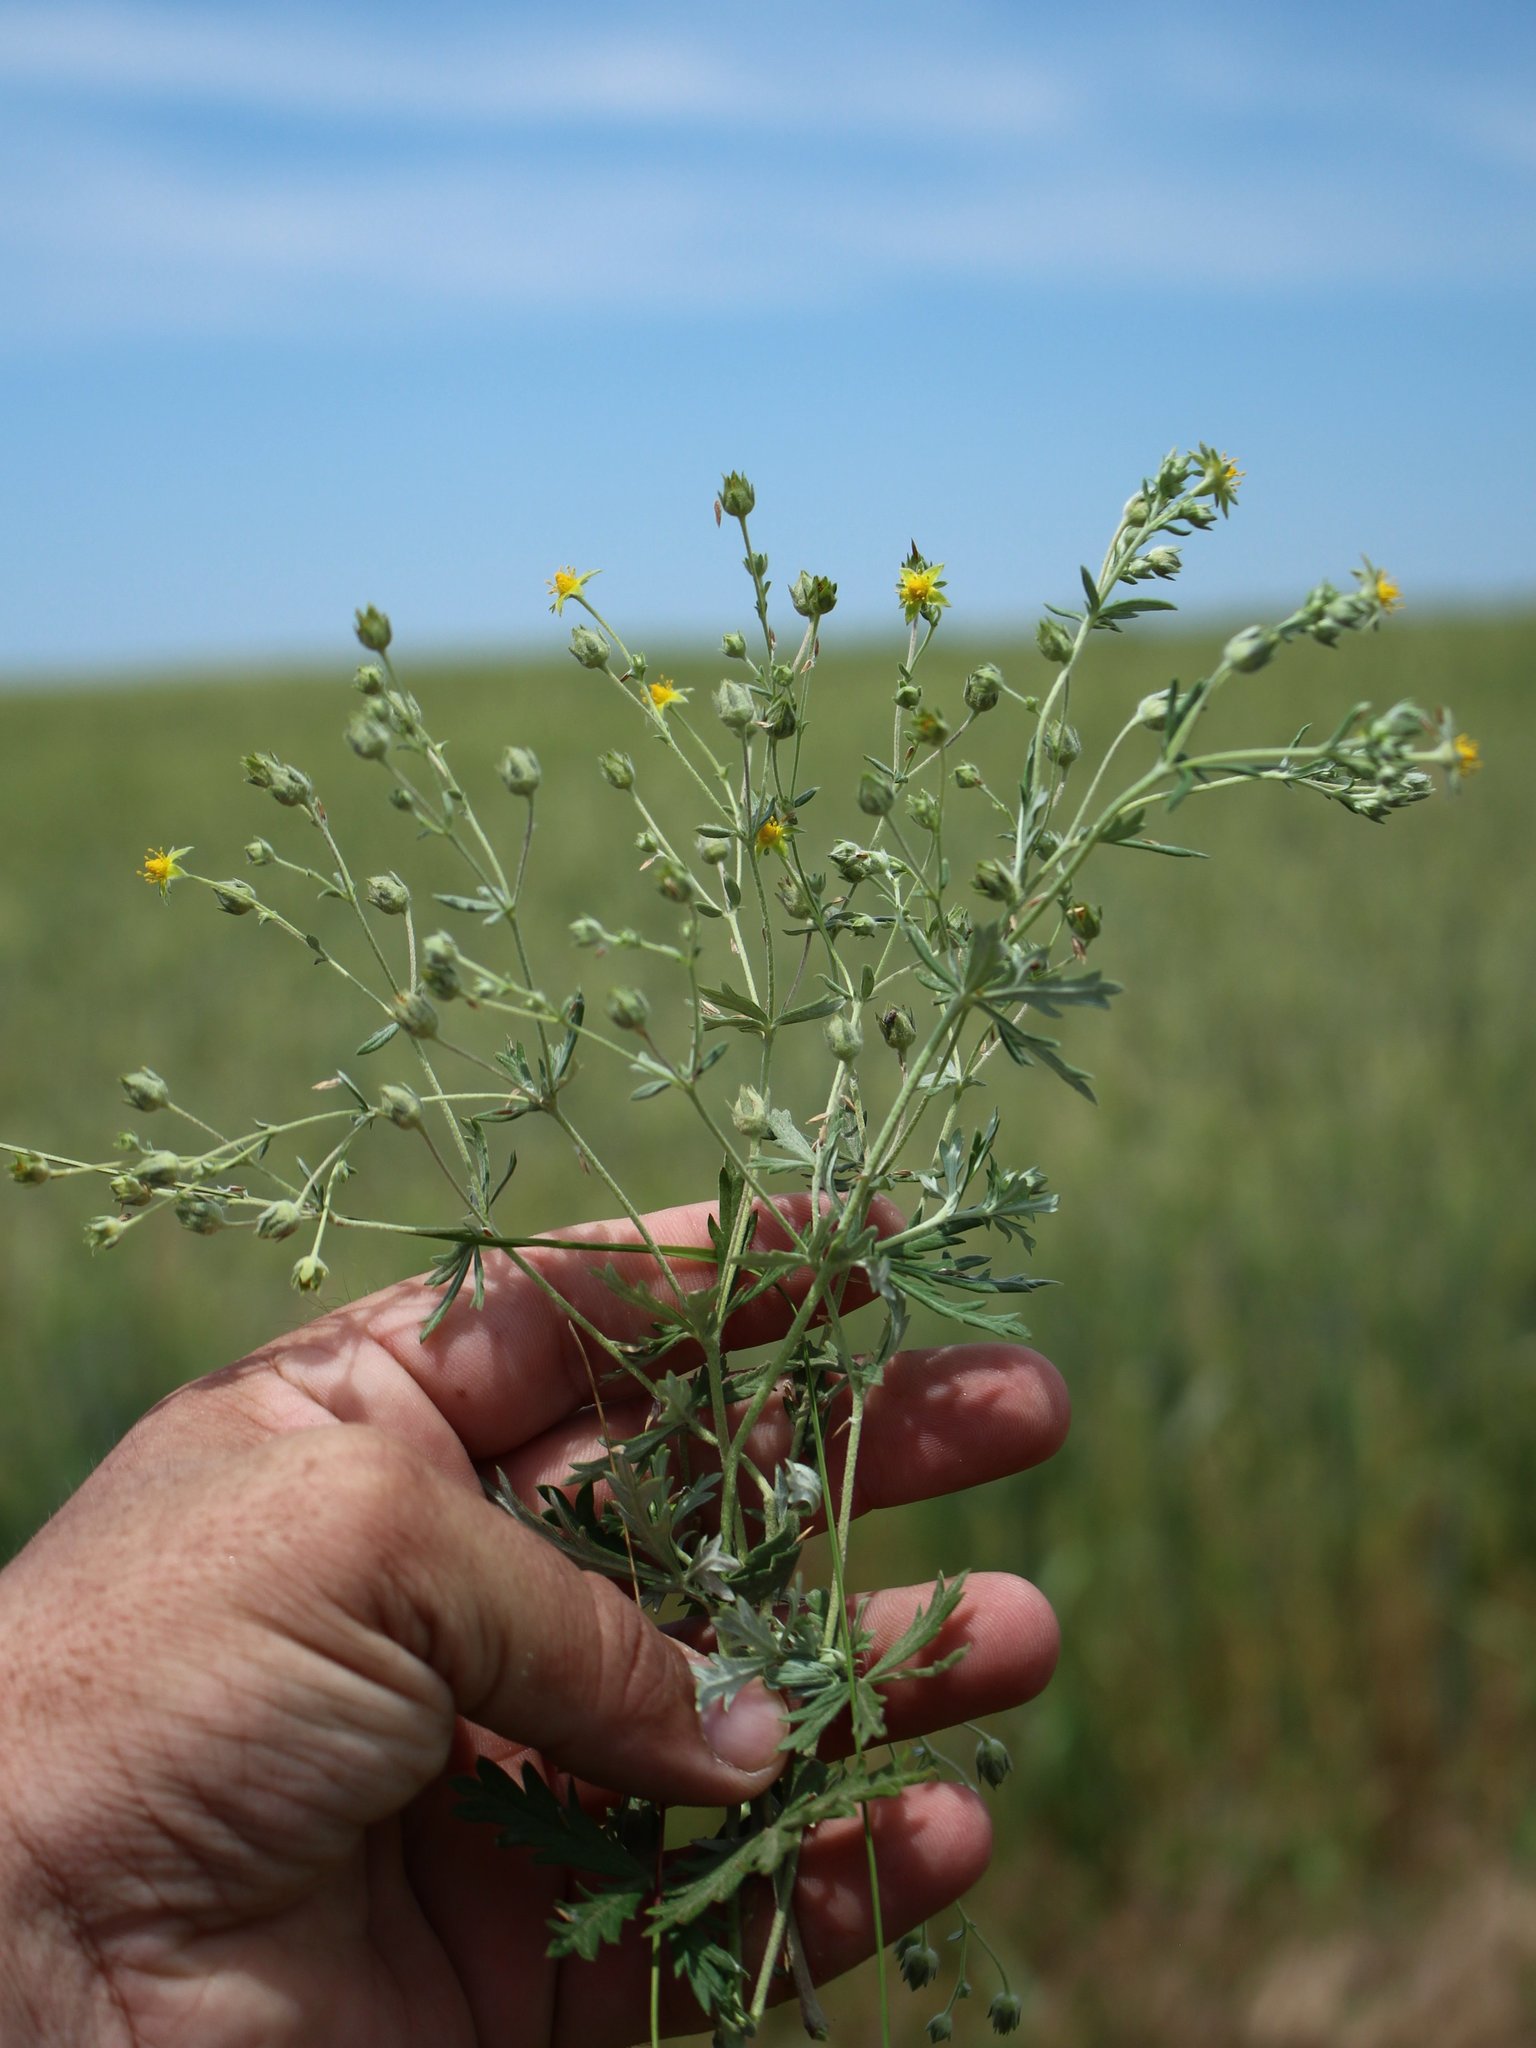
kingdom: Plantae
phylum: Tracheophyta
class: Magnoliopsida
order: Rosales
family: Rosaceae
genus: Potentilla
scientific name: Potentilla argentea
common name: Hoary cinquefoil
